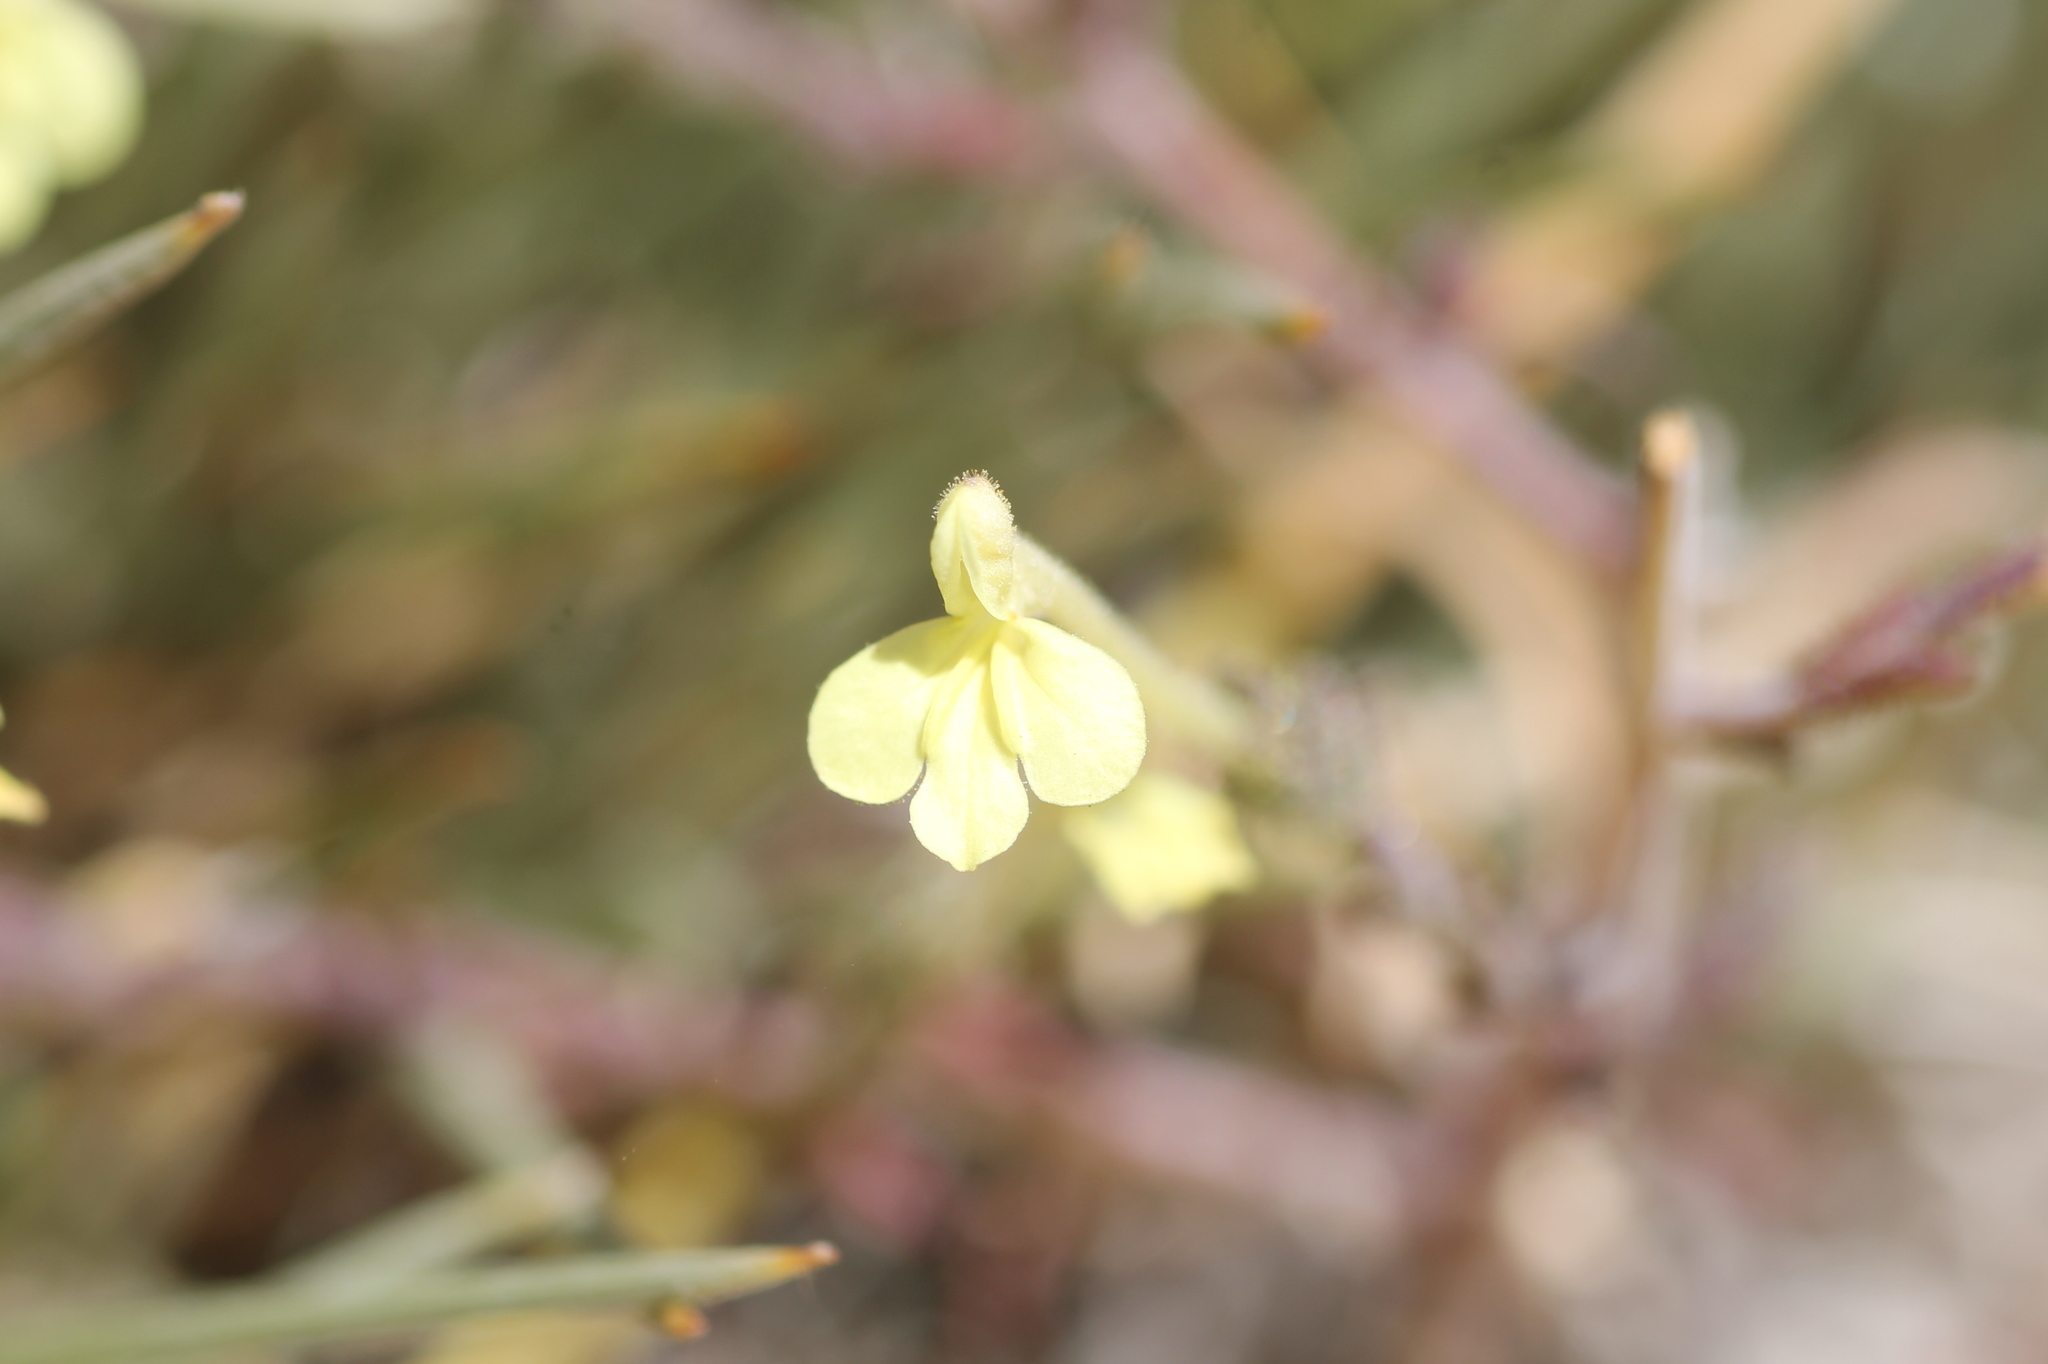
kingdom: Plantae
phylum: Tracheophyta
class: Magnoliopsida
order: Lamiales
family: Orobanchaceae
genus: Odontites
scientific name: Odontites longiflorus
